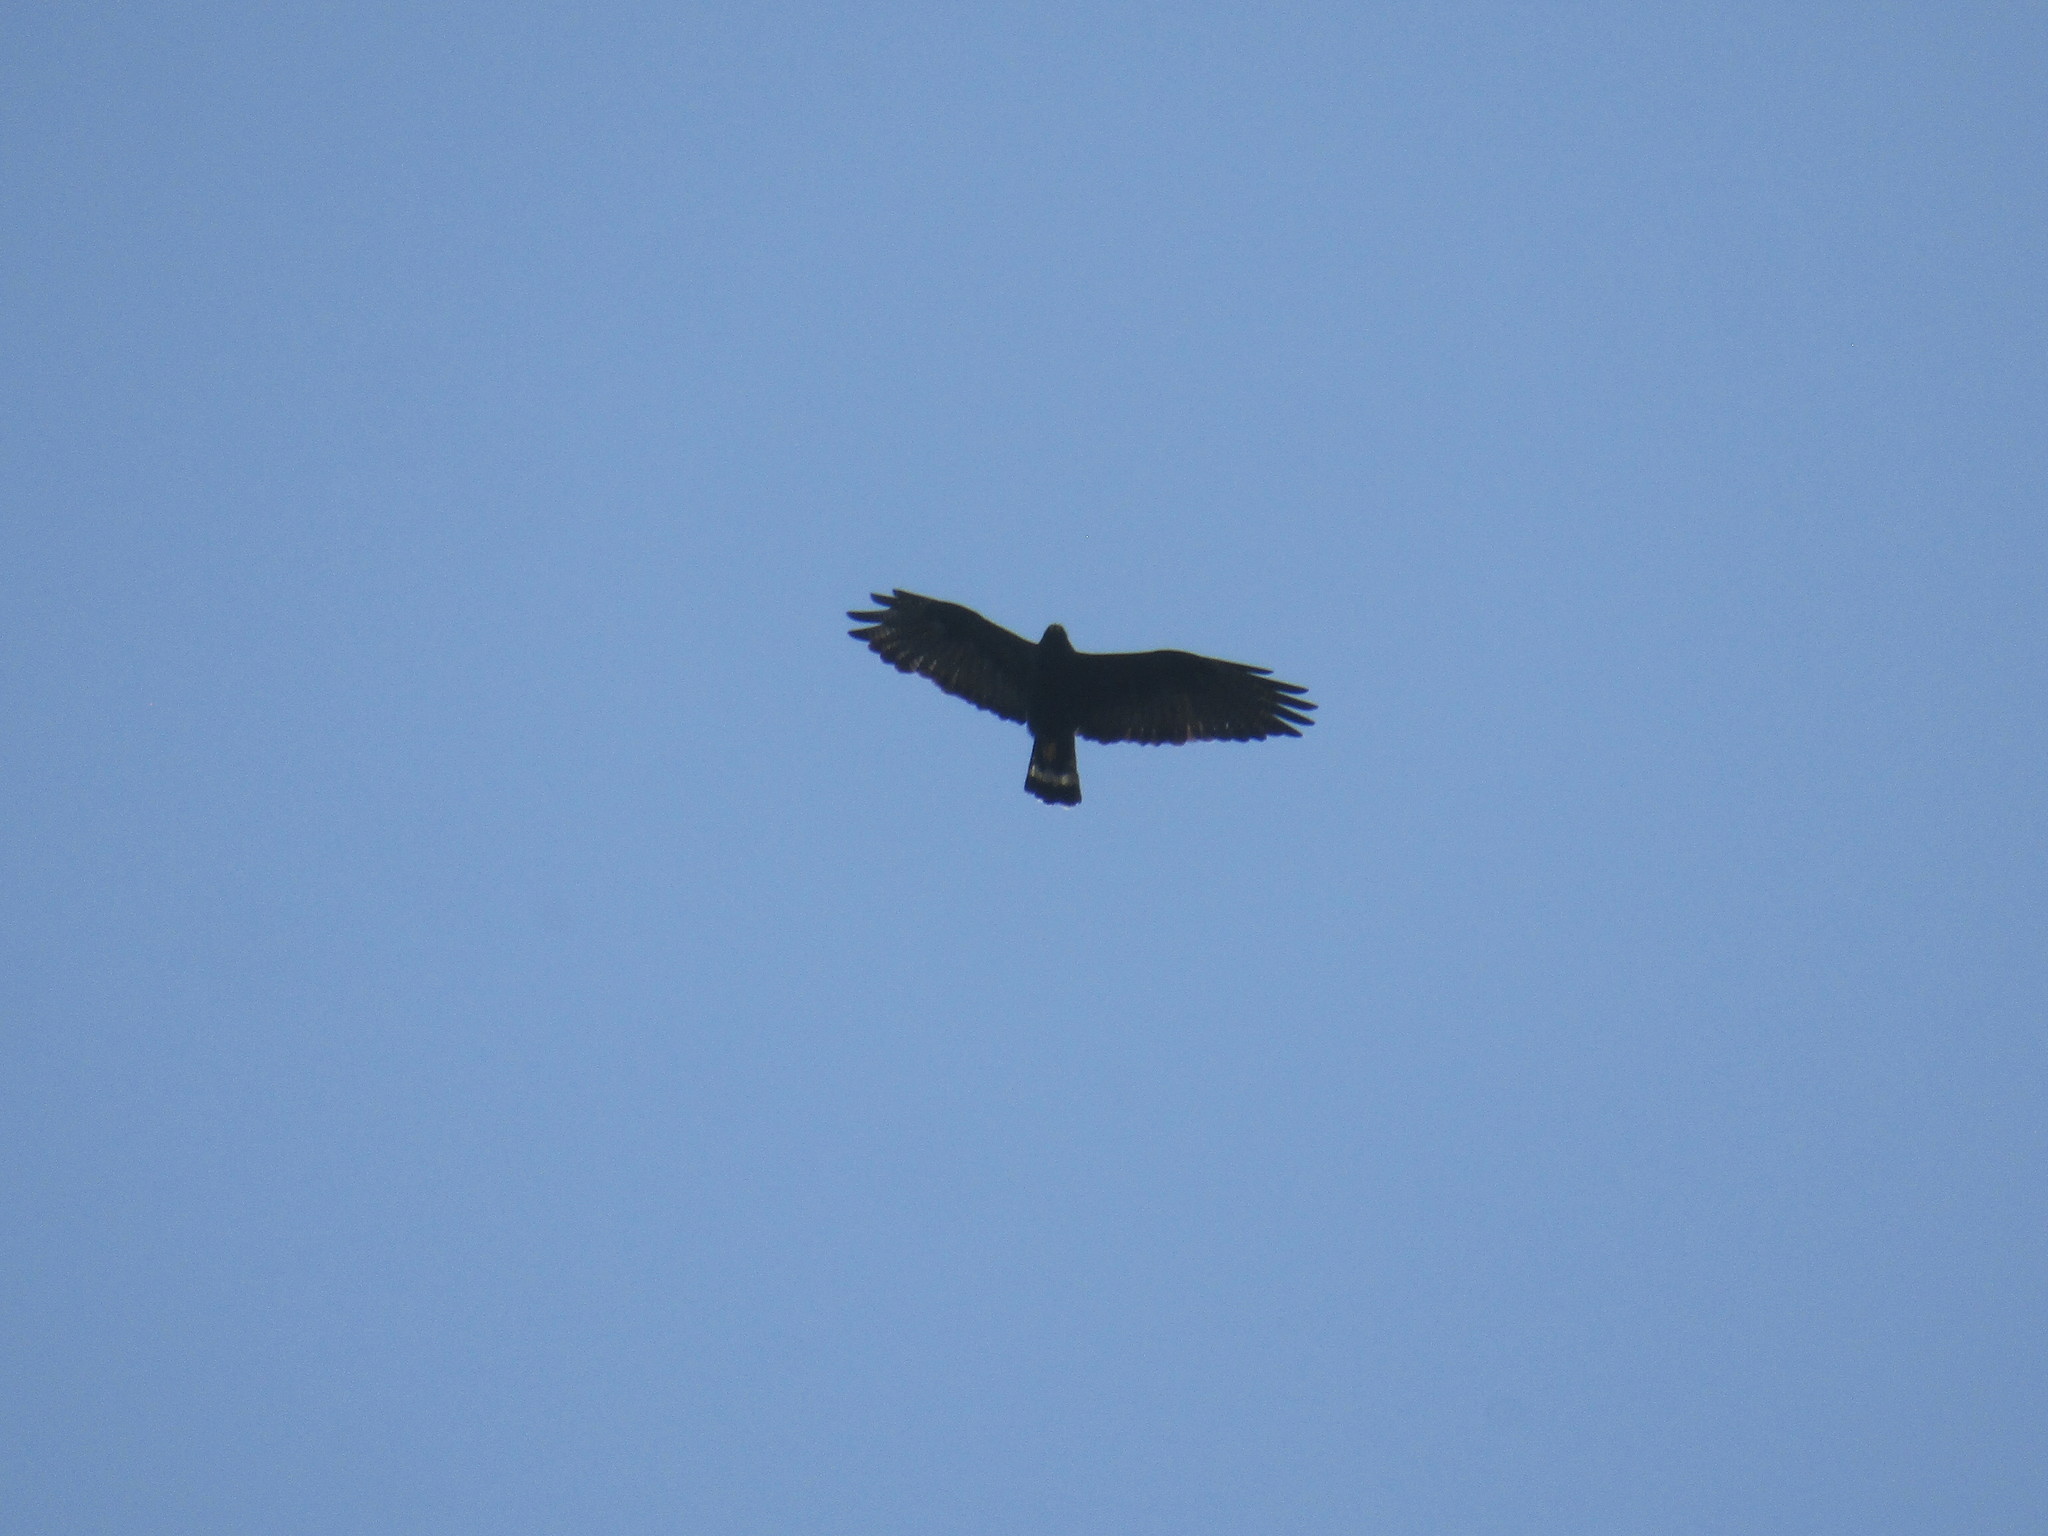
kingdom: Animalia
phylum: Chordata
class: Aves
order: Accipitriformes
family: Accipitridae
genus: Buteo
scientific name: Buteo albonotatus
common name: Zone-tailed hawk
